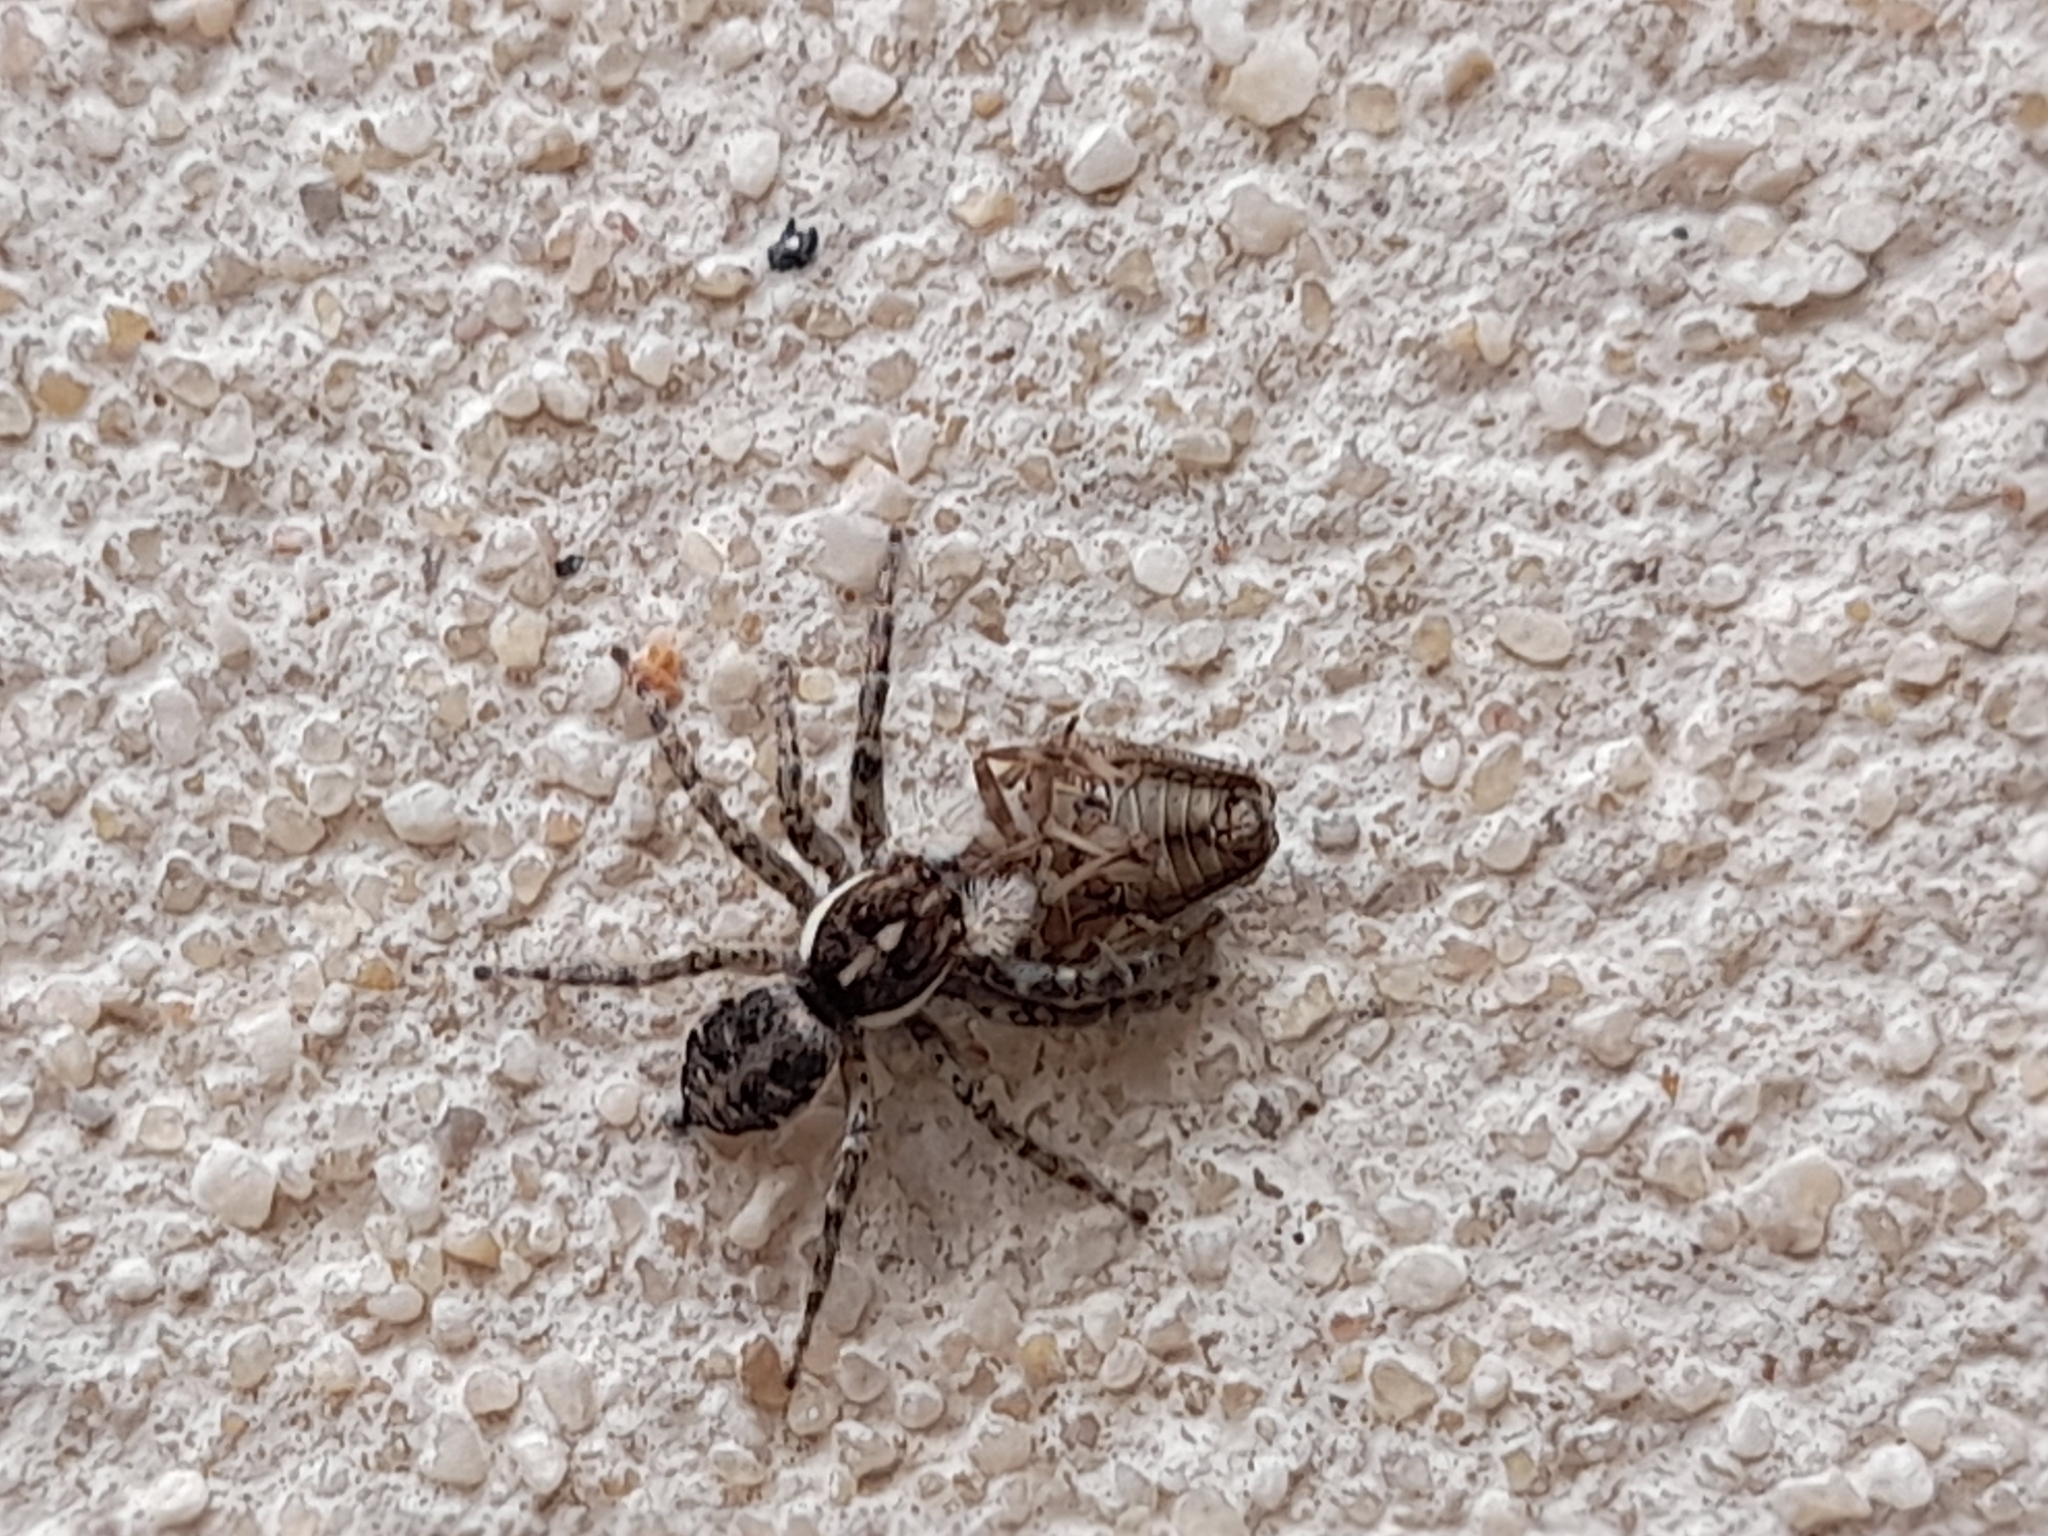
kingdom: Animalia
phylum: Arthropoda
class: Arachnida
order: Araneae
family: Salticidae
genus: Menemerus
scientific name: Menemerus semilimbatus
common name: Jumping spider
